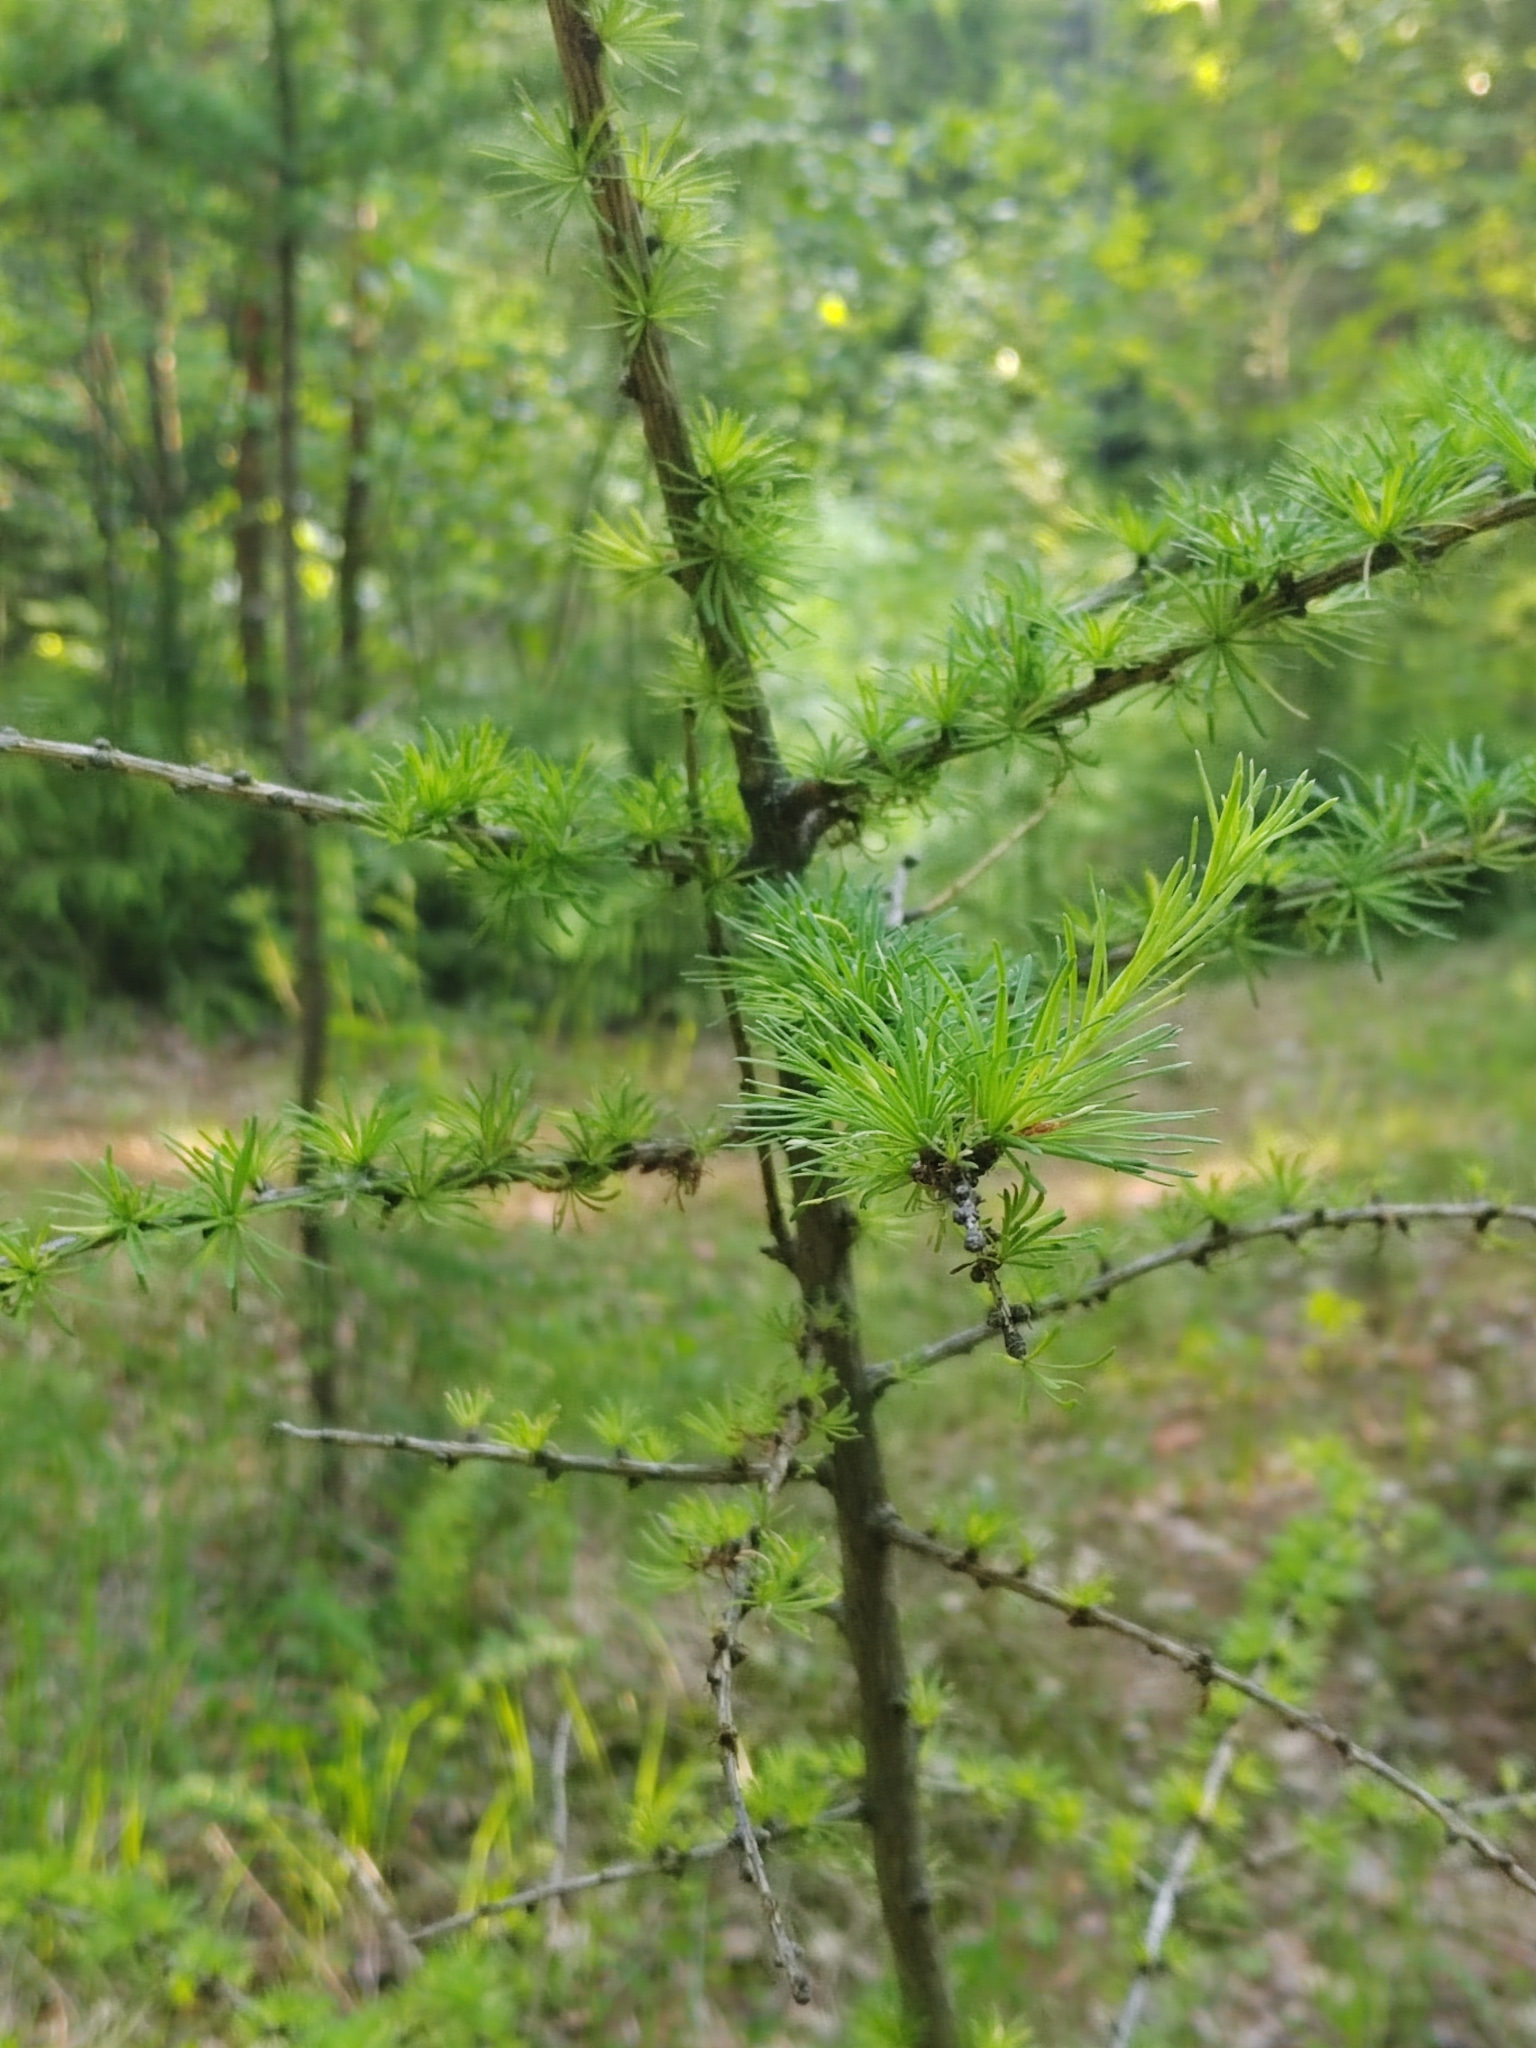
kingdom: Plantae
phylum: Tracheophyta
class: Pinopsida
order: Pinales
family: Pinaceae
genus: Larix
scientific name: Larix sibirica
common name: Siberian larch
